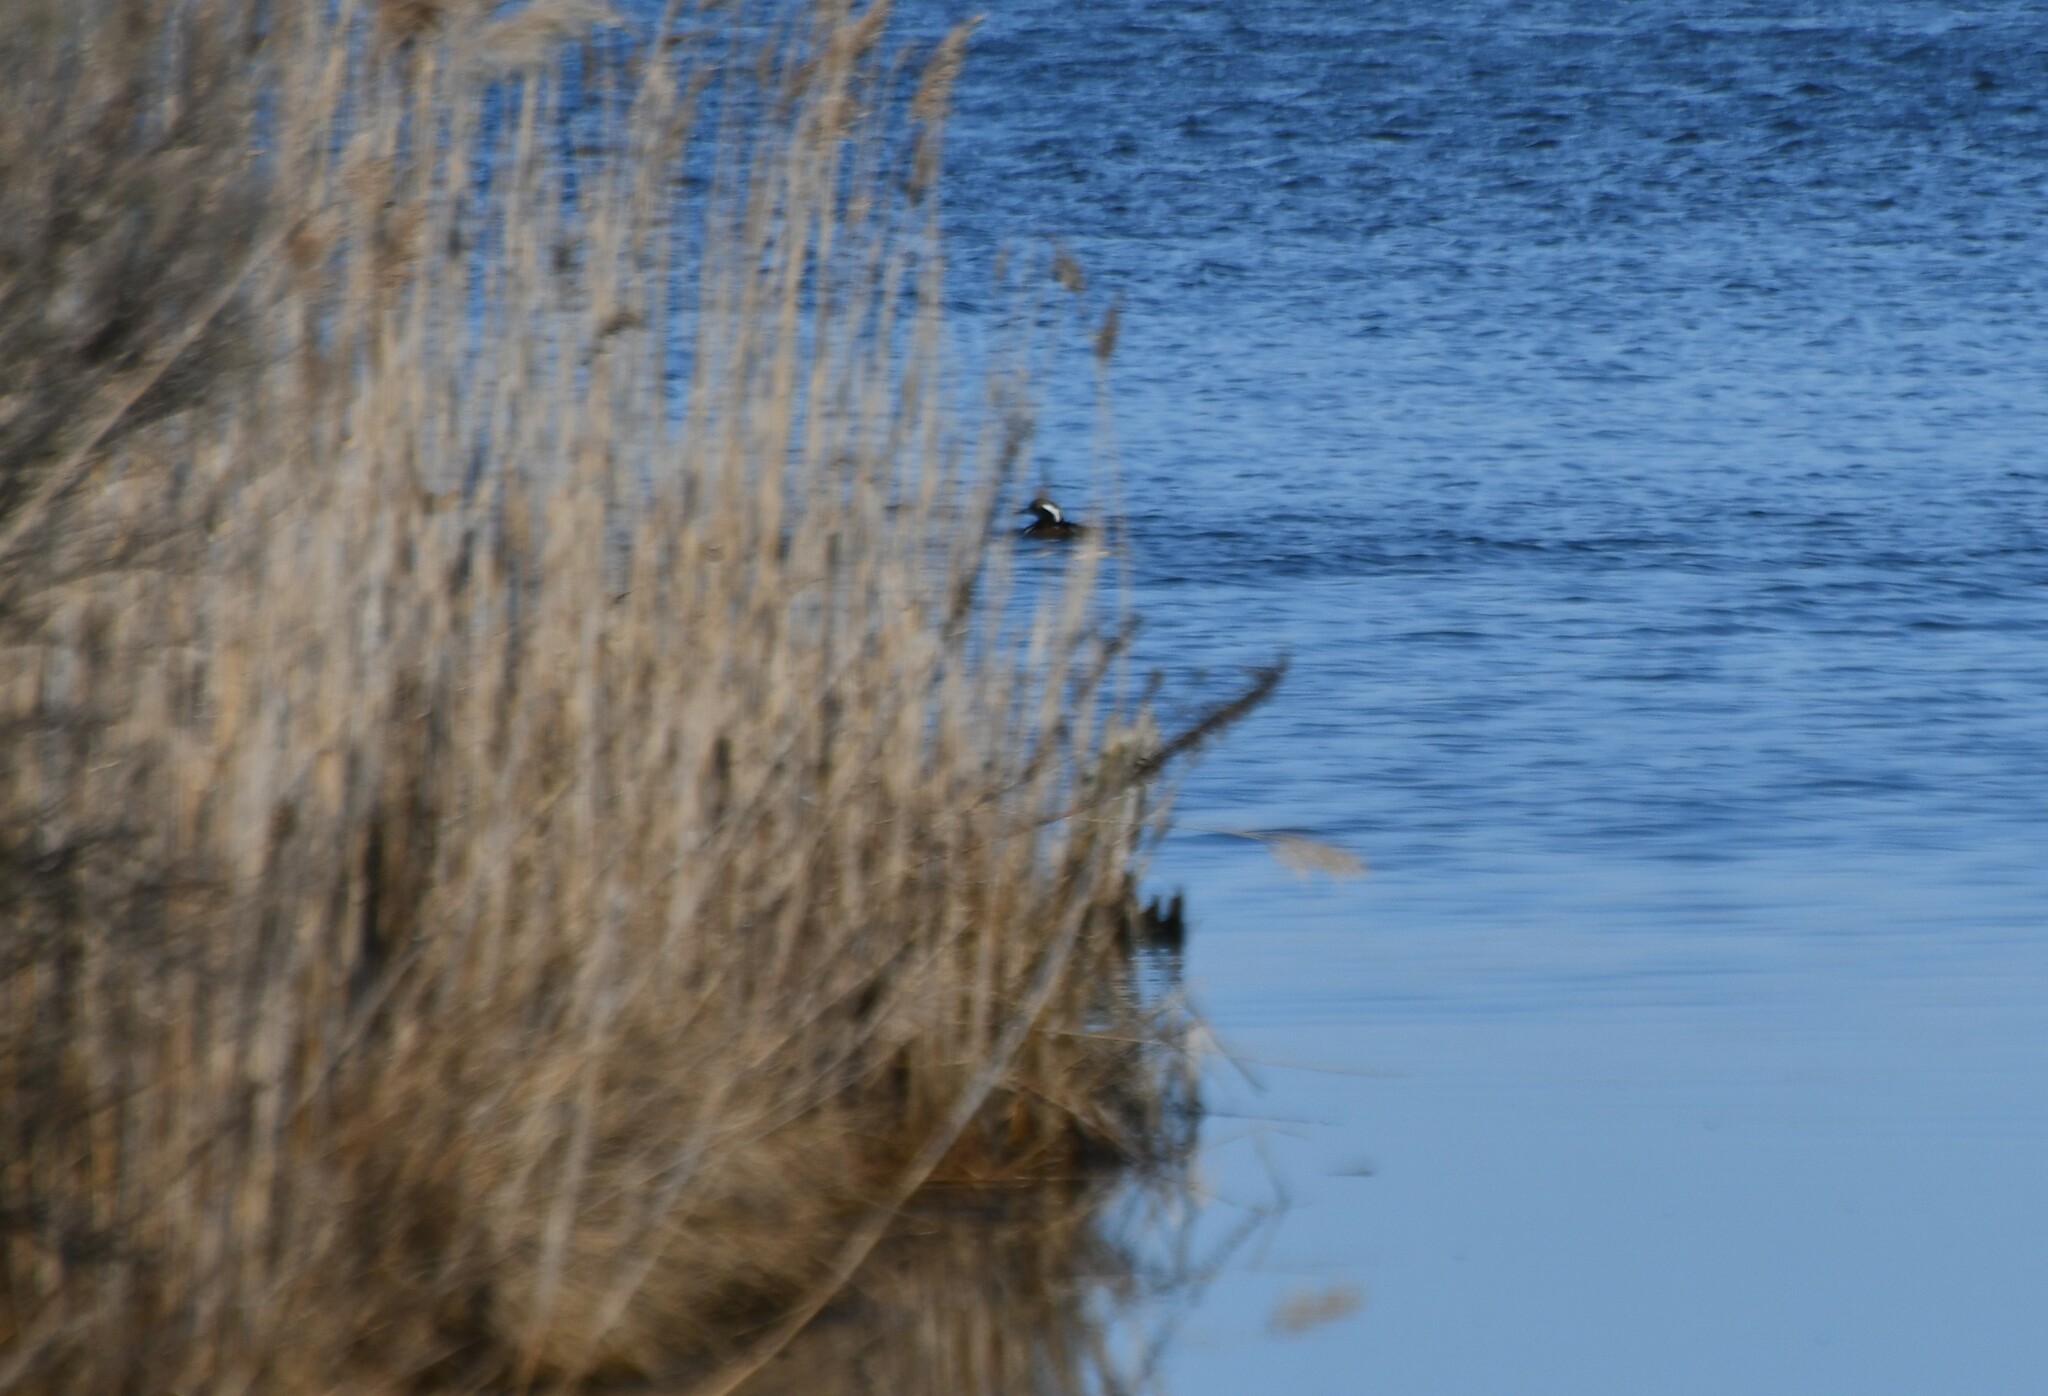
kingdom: Animalia
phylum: Chordata
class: Aves
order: Anseriformes
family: Anatidae
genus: Lophodytes
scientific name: Lophodytes cucullatus
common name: Hooded merganser
